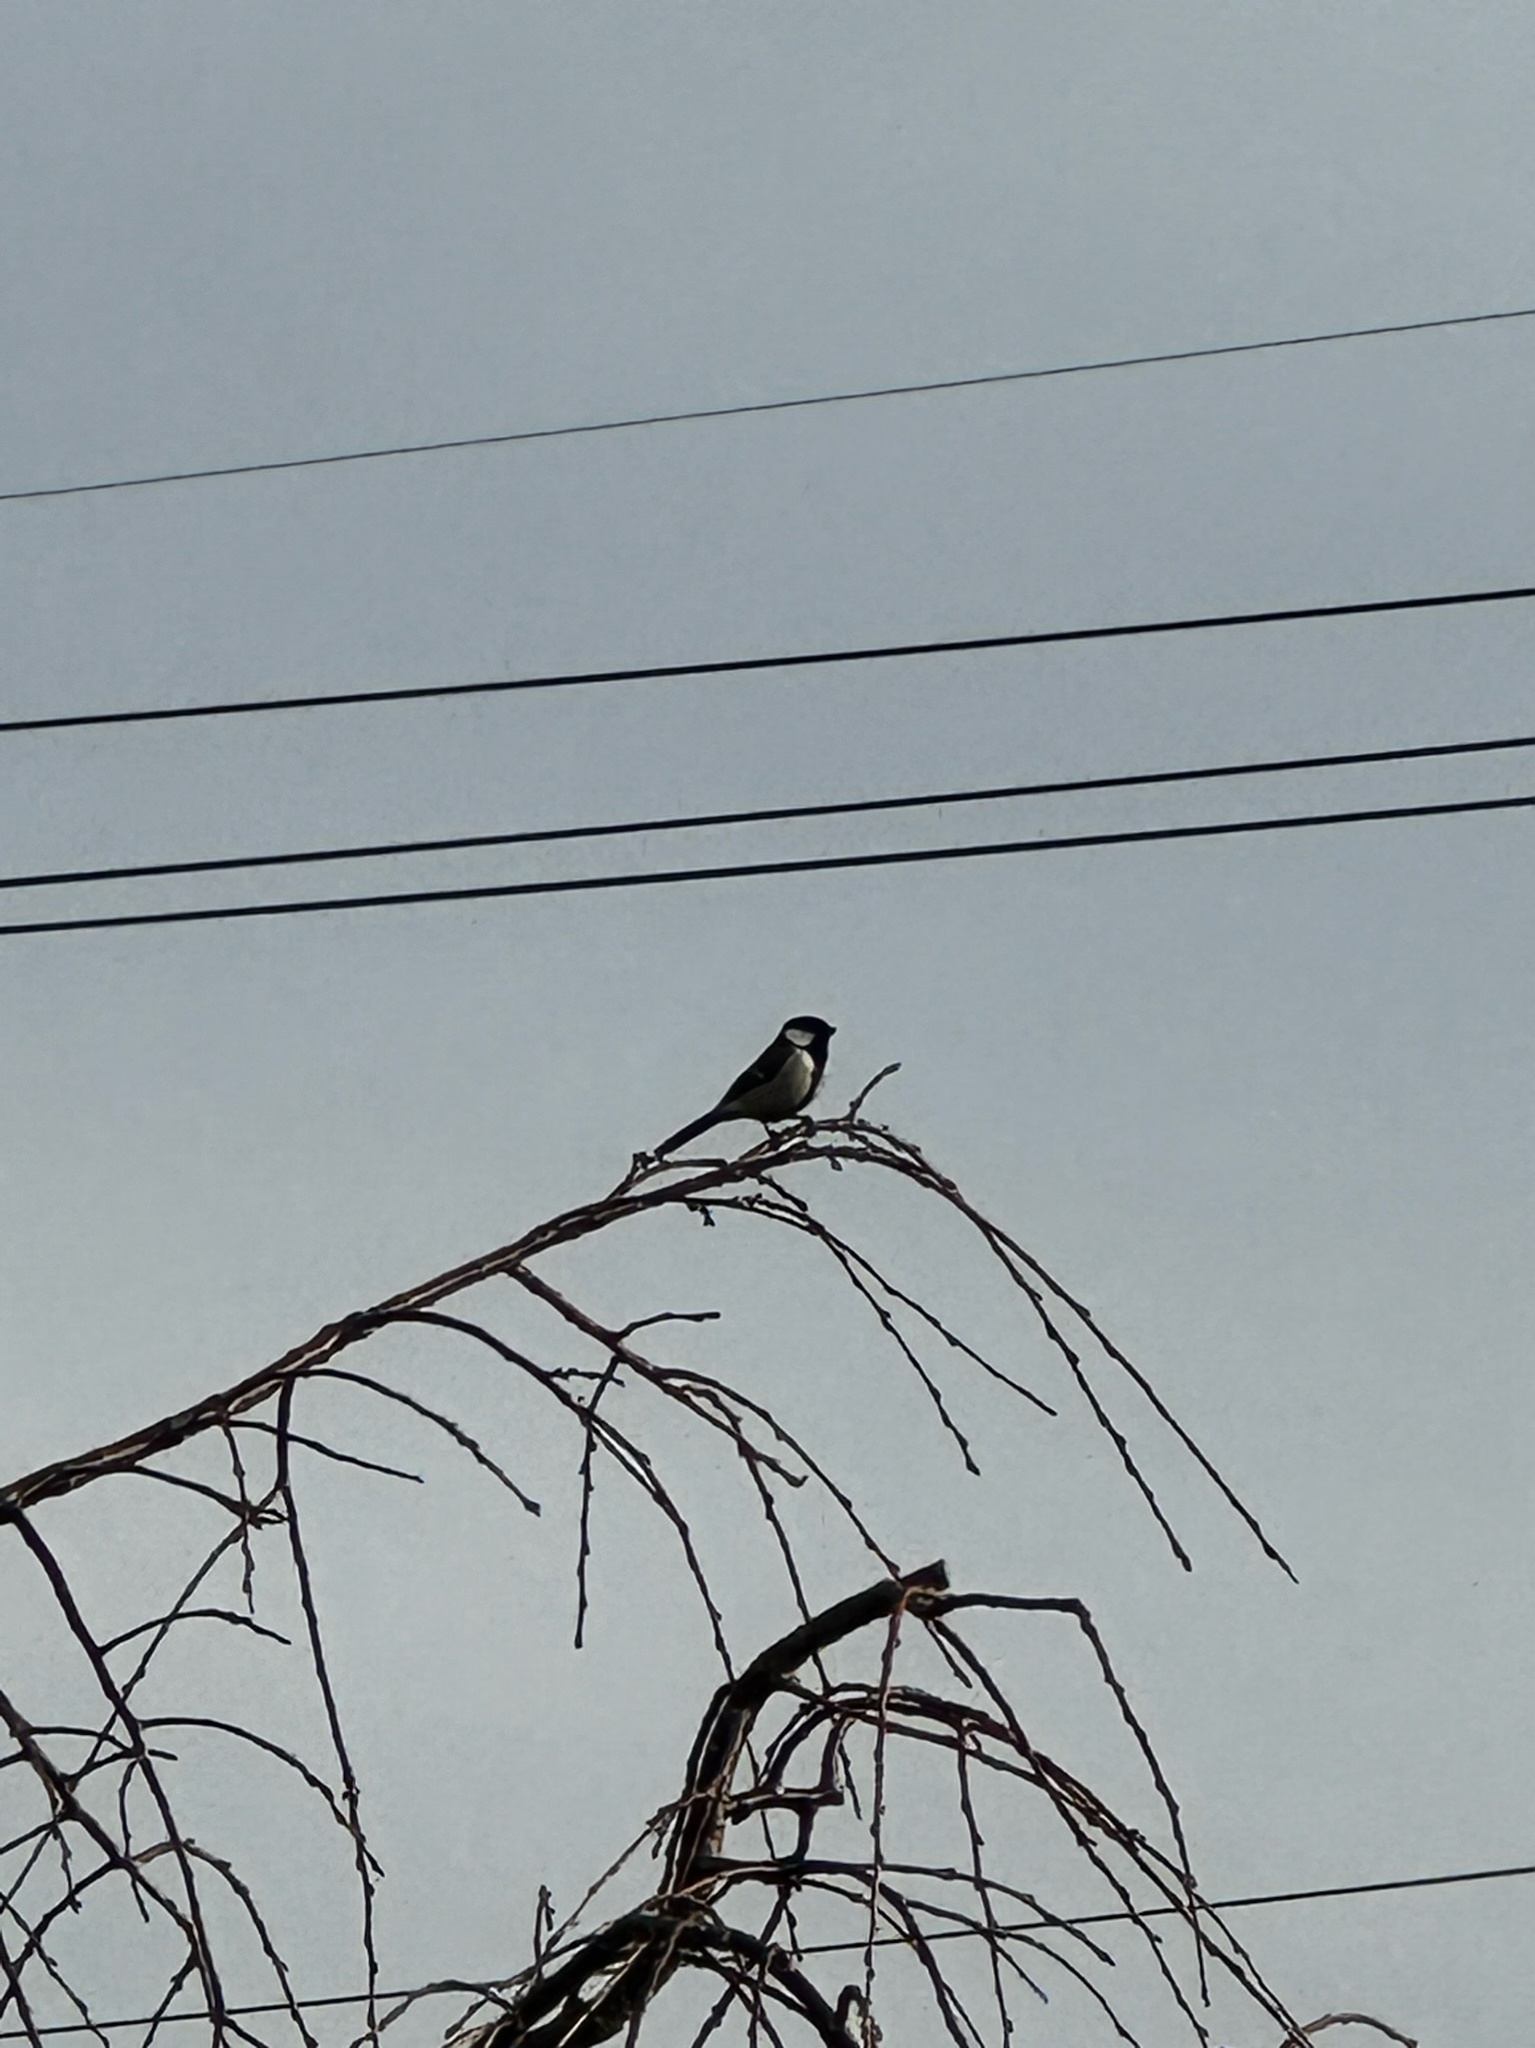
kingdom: Animalia
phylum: Chordata
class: Aves
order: Passeriformes
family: Paridae
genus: Parus
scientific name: Parus minor
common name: Japanese tit
